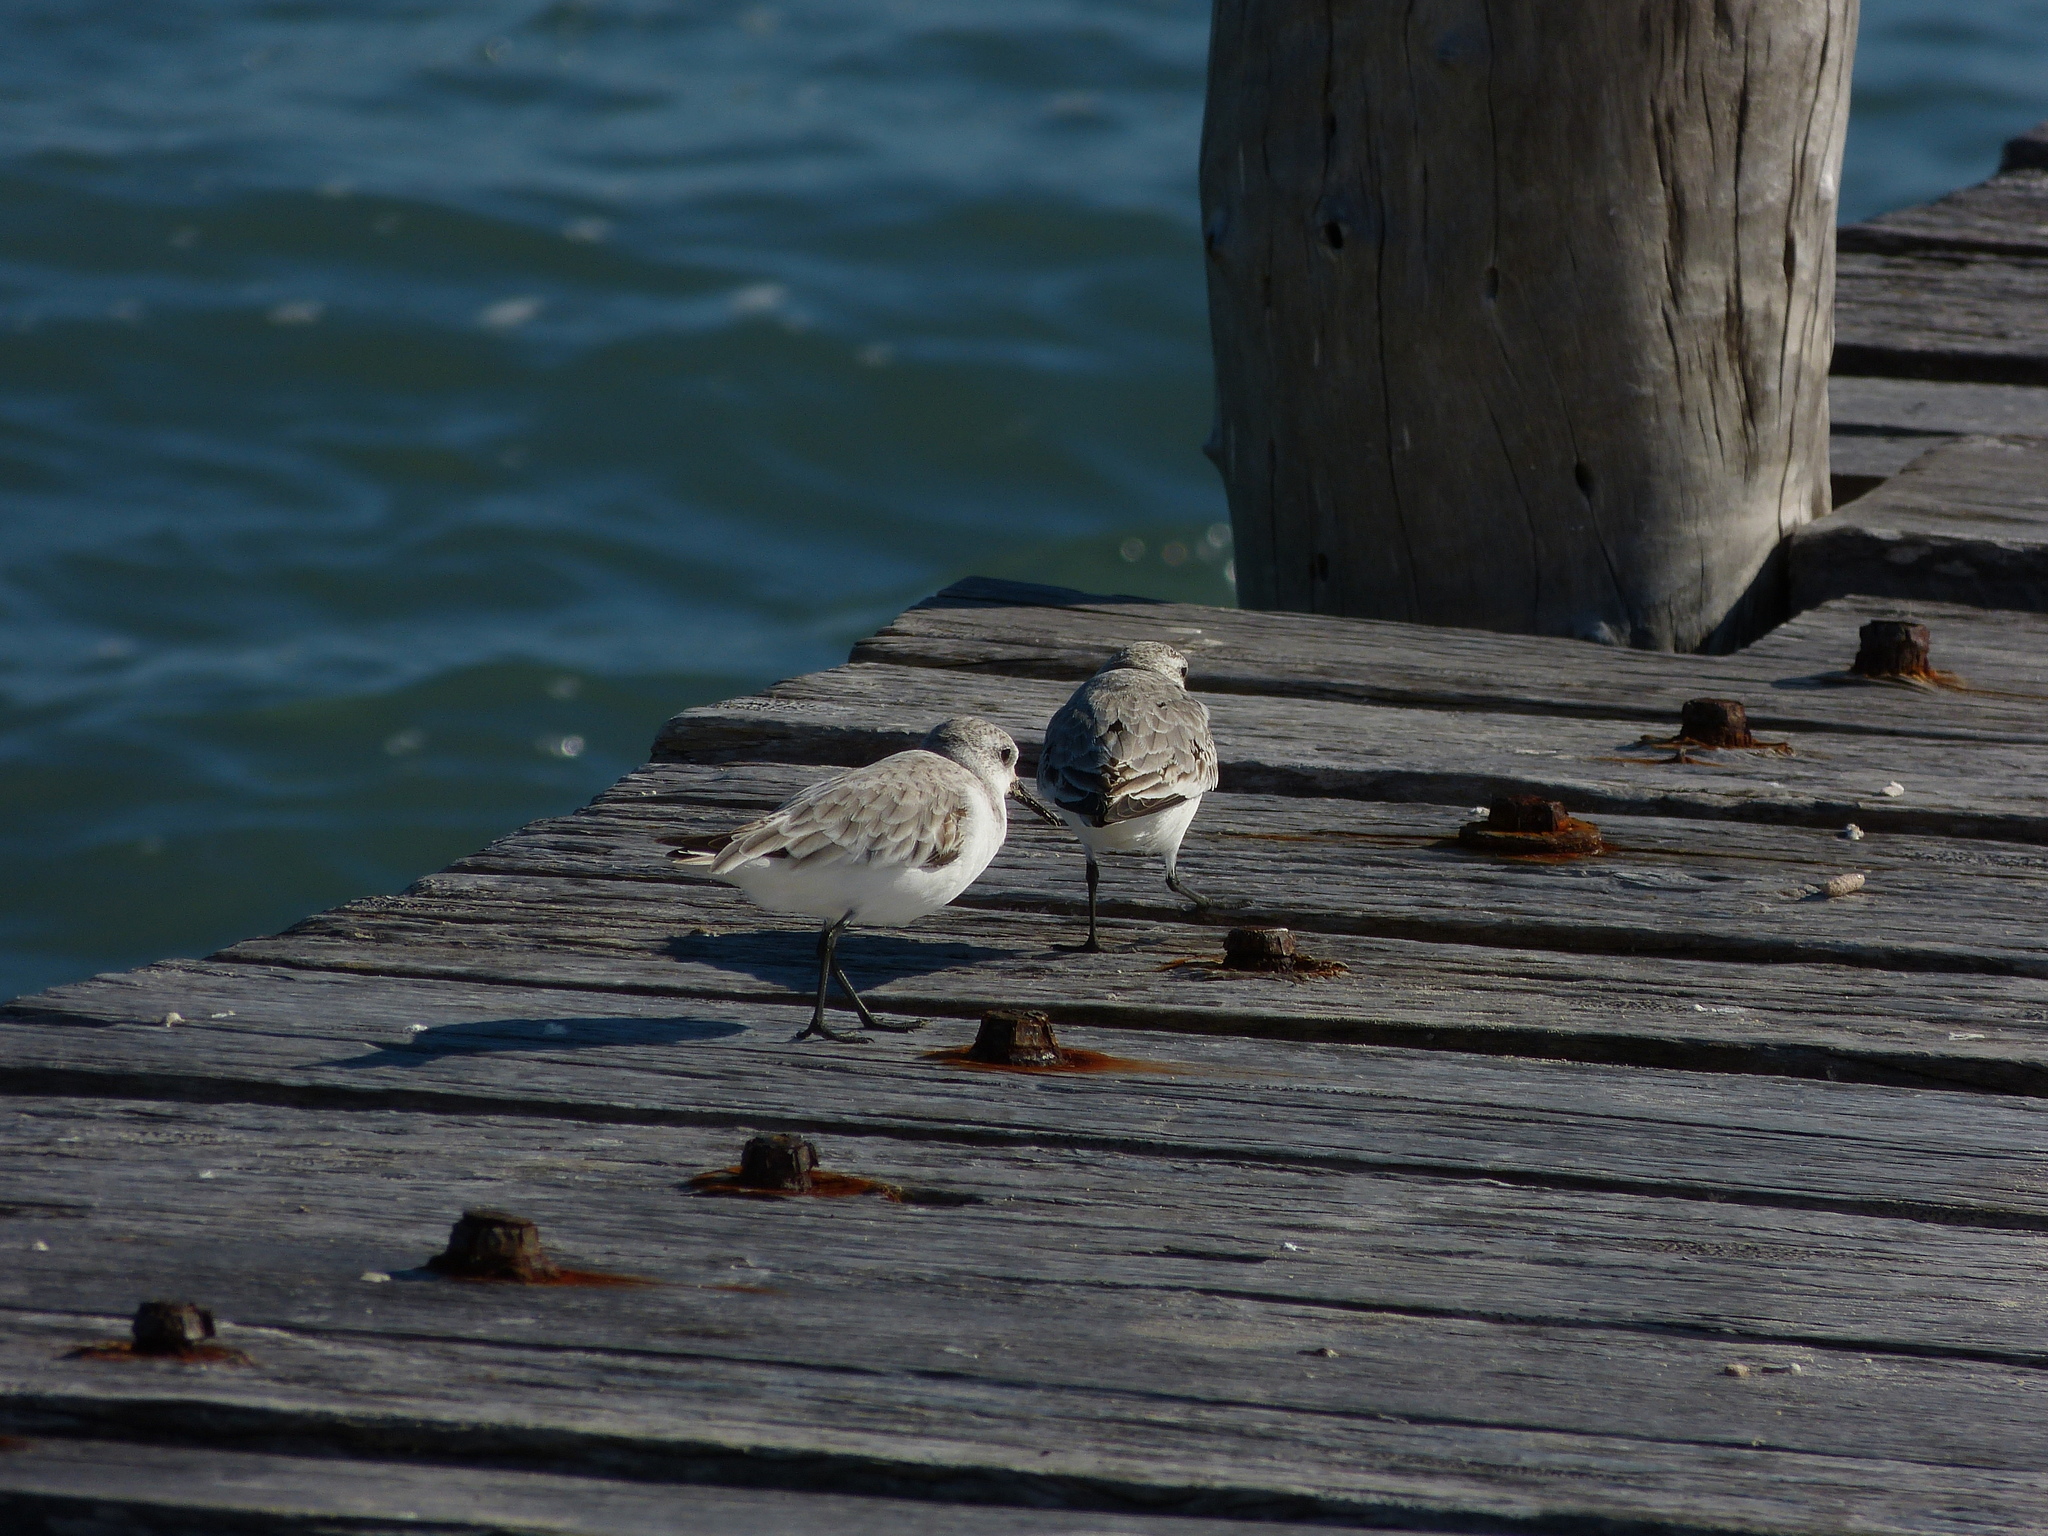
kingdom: Animalia
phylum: Chordata
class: Aves
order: Charadriiformes
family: Scolopacidae
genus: Calidris
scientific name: Calidris alba
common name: Sanderling
